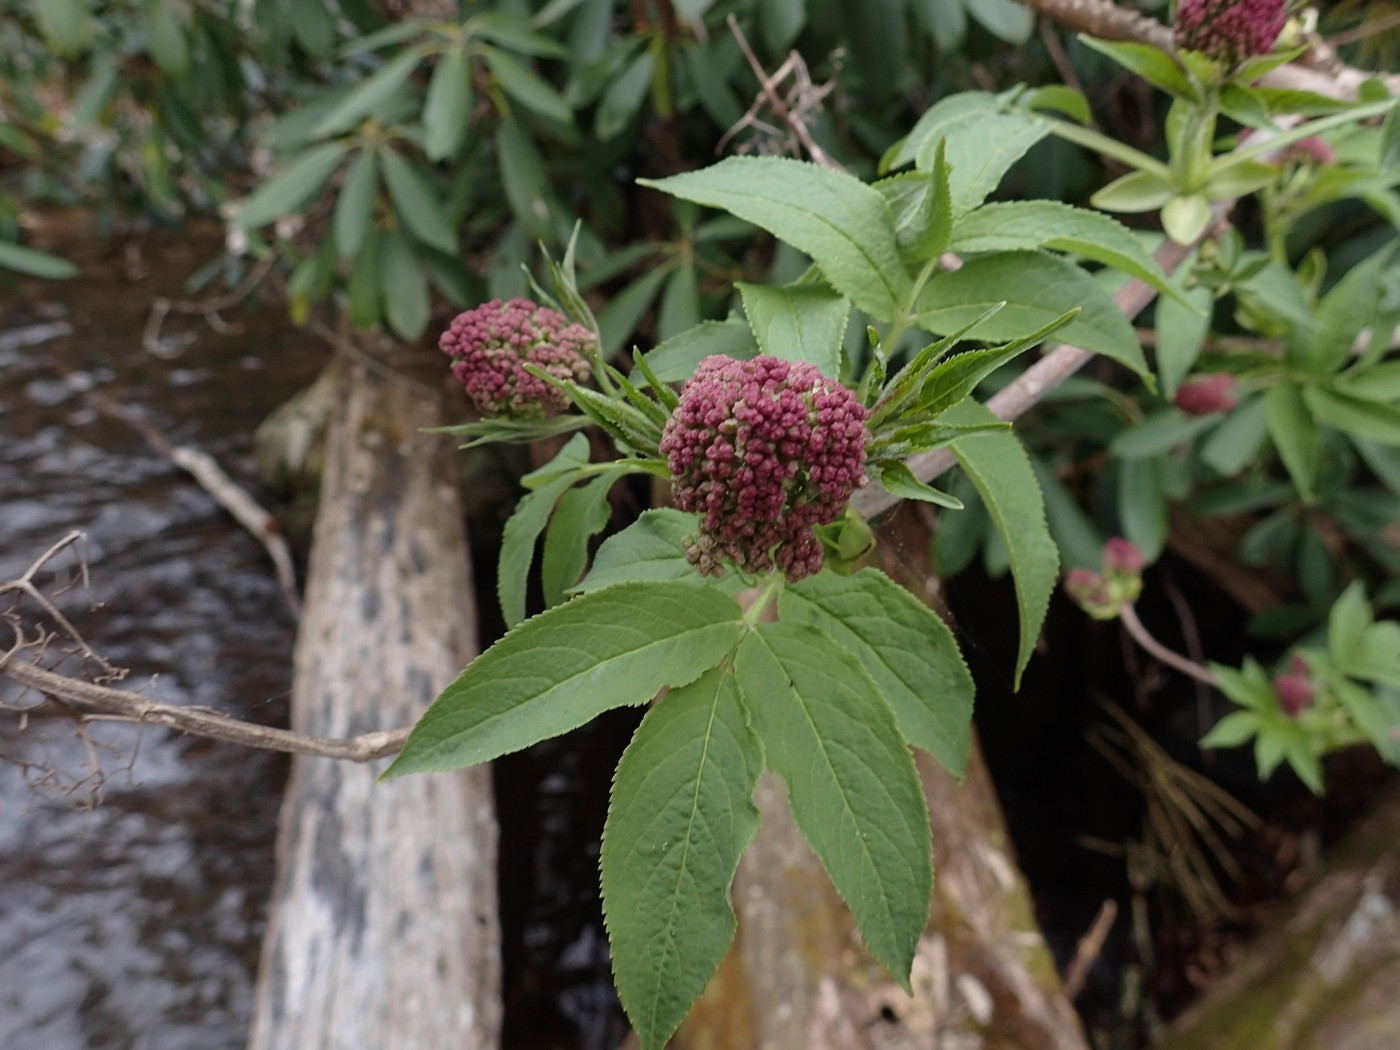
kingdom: Plantae
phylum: Tracheophyta
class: Magnoliopsida
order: Dipsacales
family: Viburnaceae
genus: Sambucus
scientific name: Sambucus racemosa
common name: Red-berried elder
